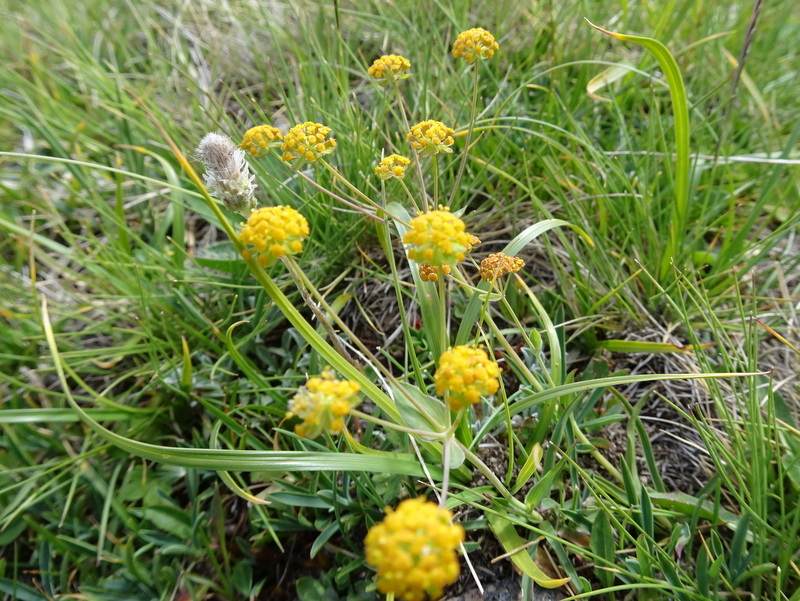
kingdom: Plantae
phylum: Tracheophyta
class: Magnoliopsida
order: Apiales
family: Apiaceae
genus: Bupleurum
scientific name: Bupleurum ranunculoides
